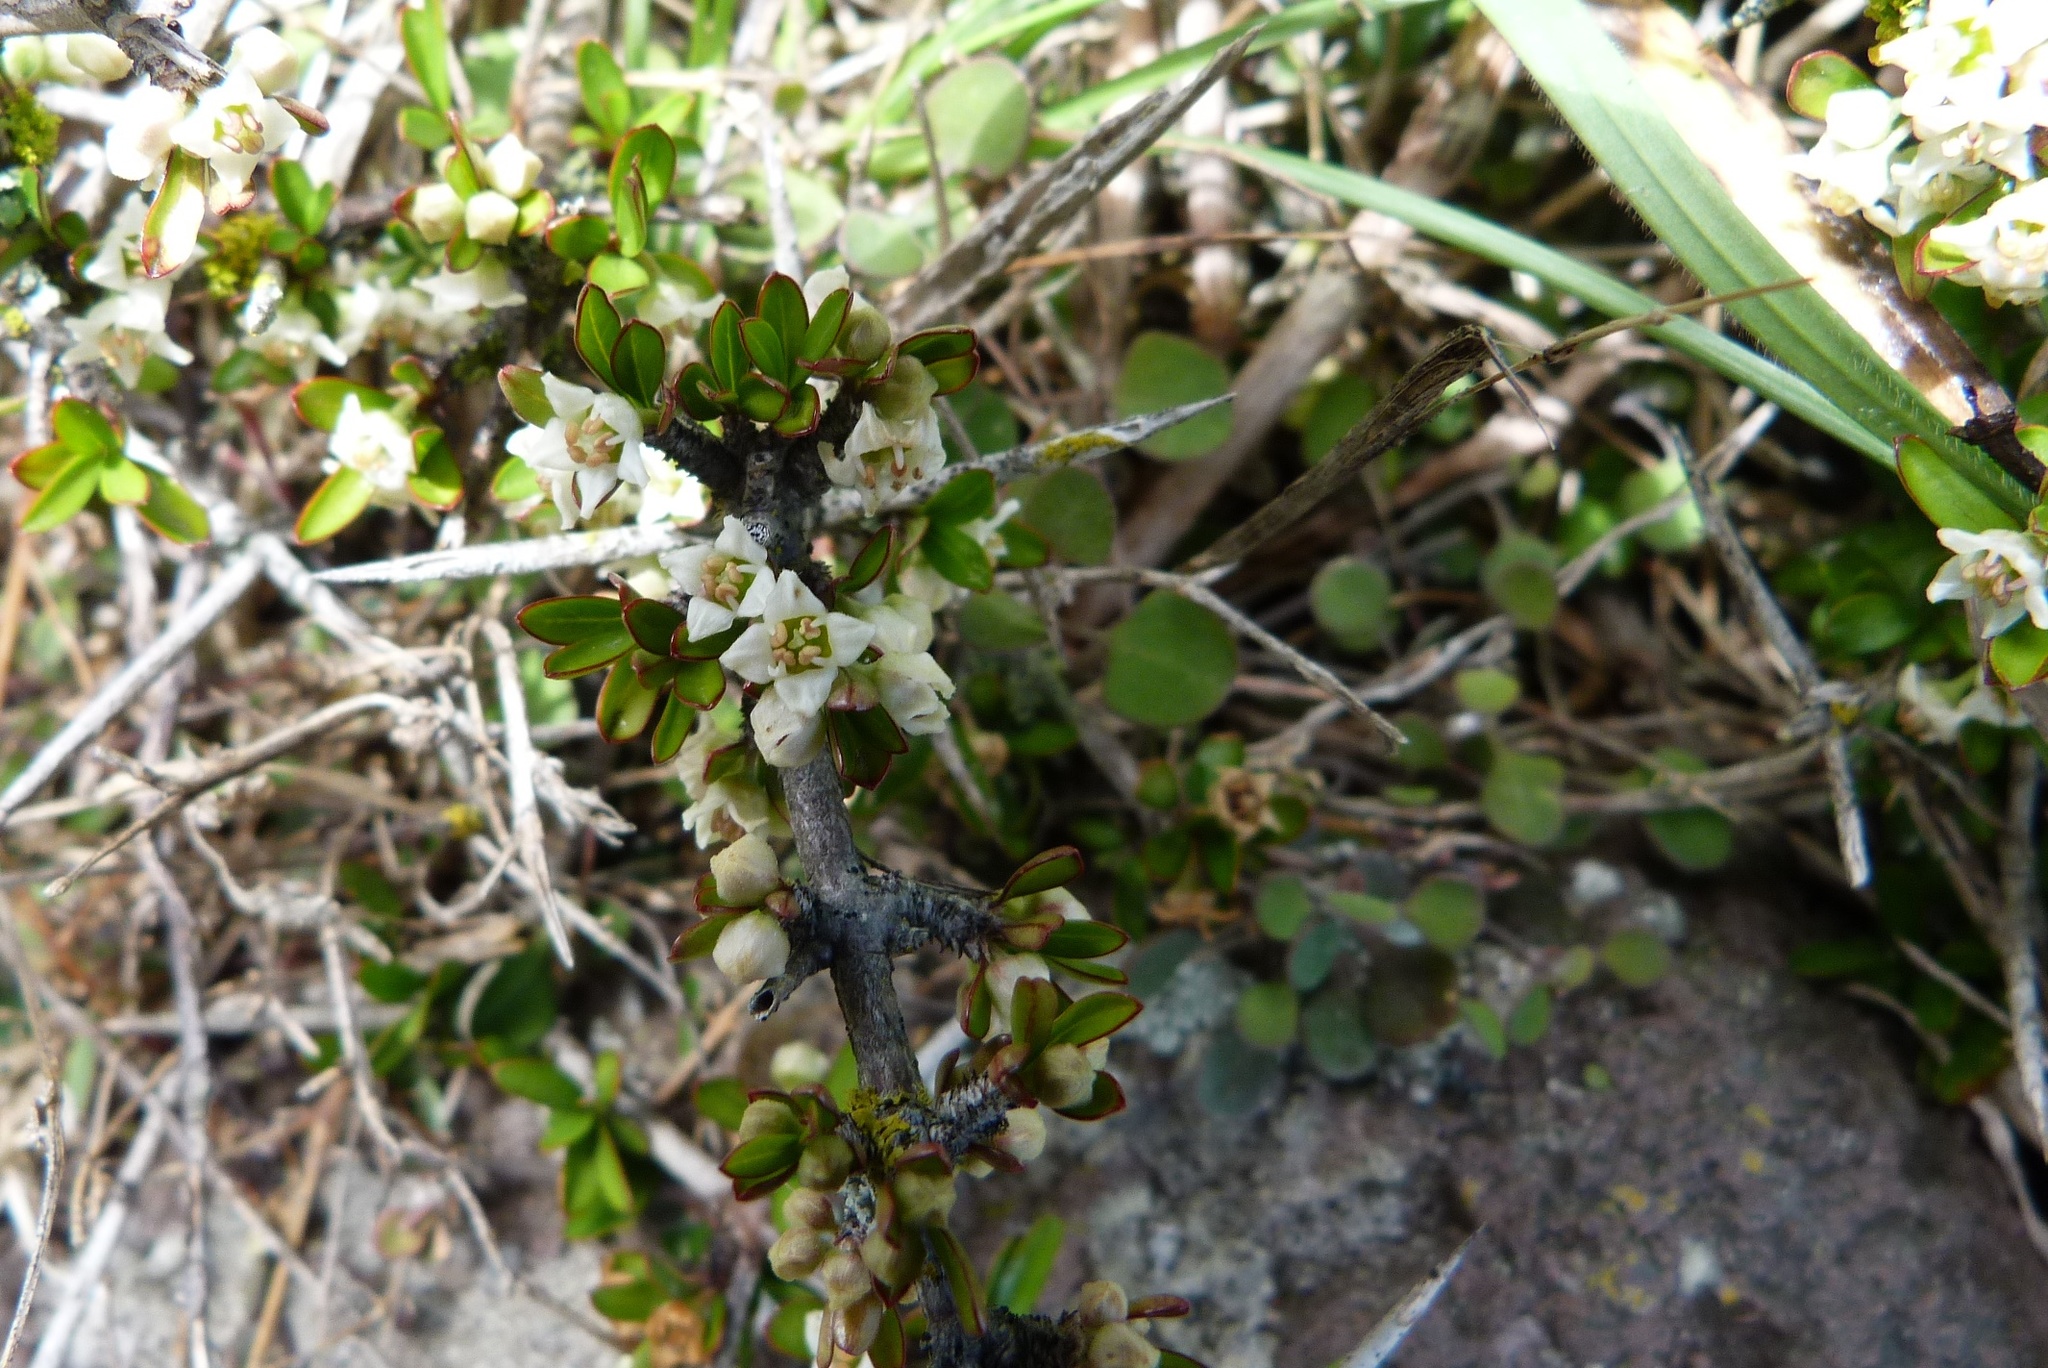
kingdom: Plantae
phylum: Tracheophyta
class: Magnoliopsida
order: Rosales
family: Rhamnaceae
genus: Discaria
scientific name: Discaria toumatou
